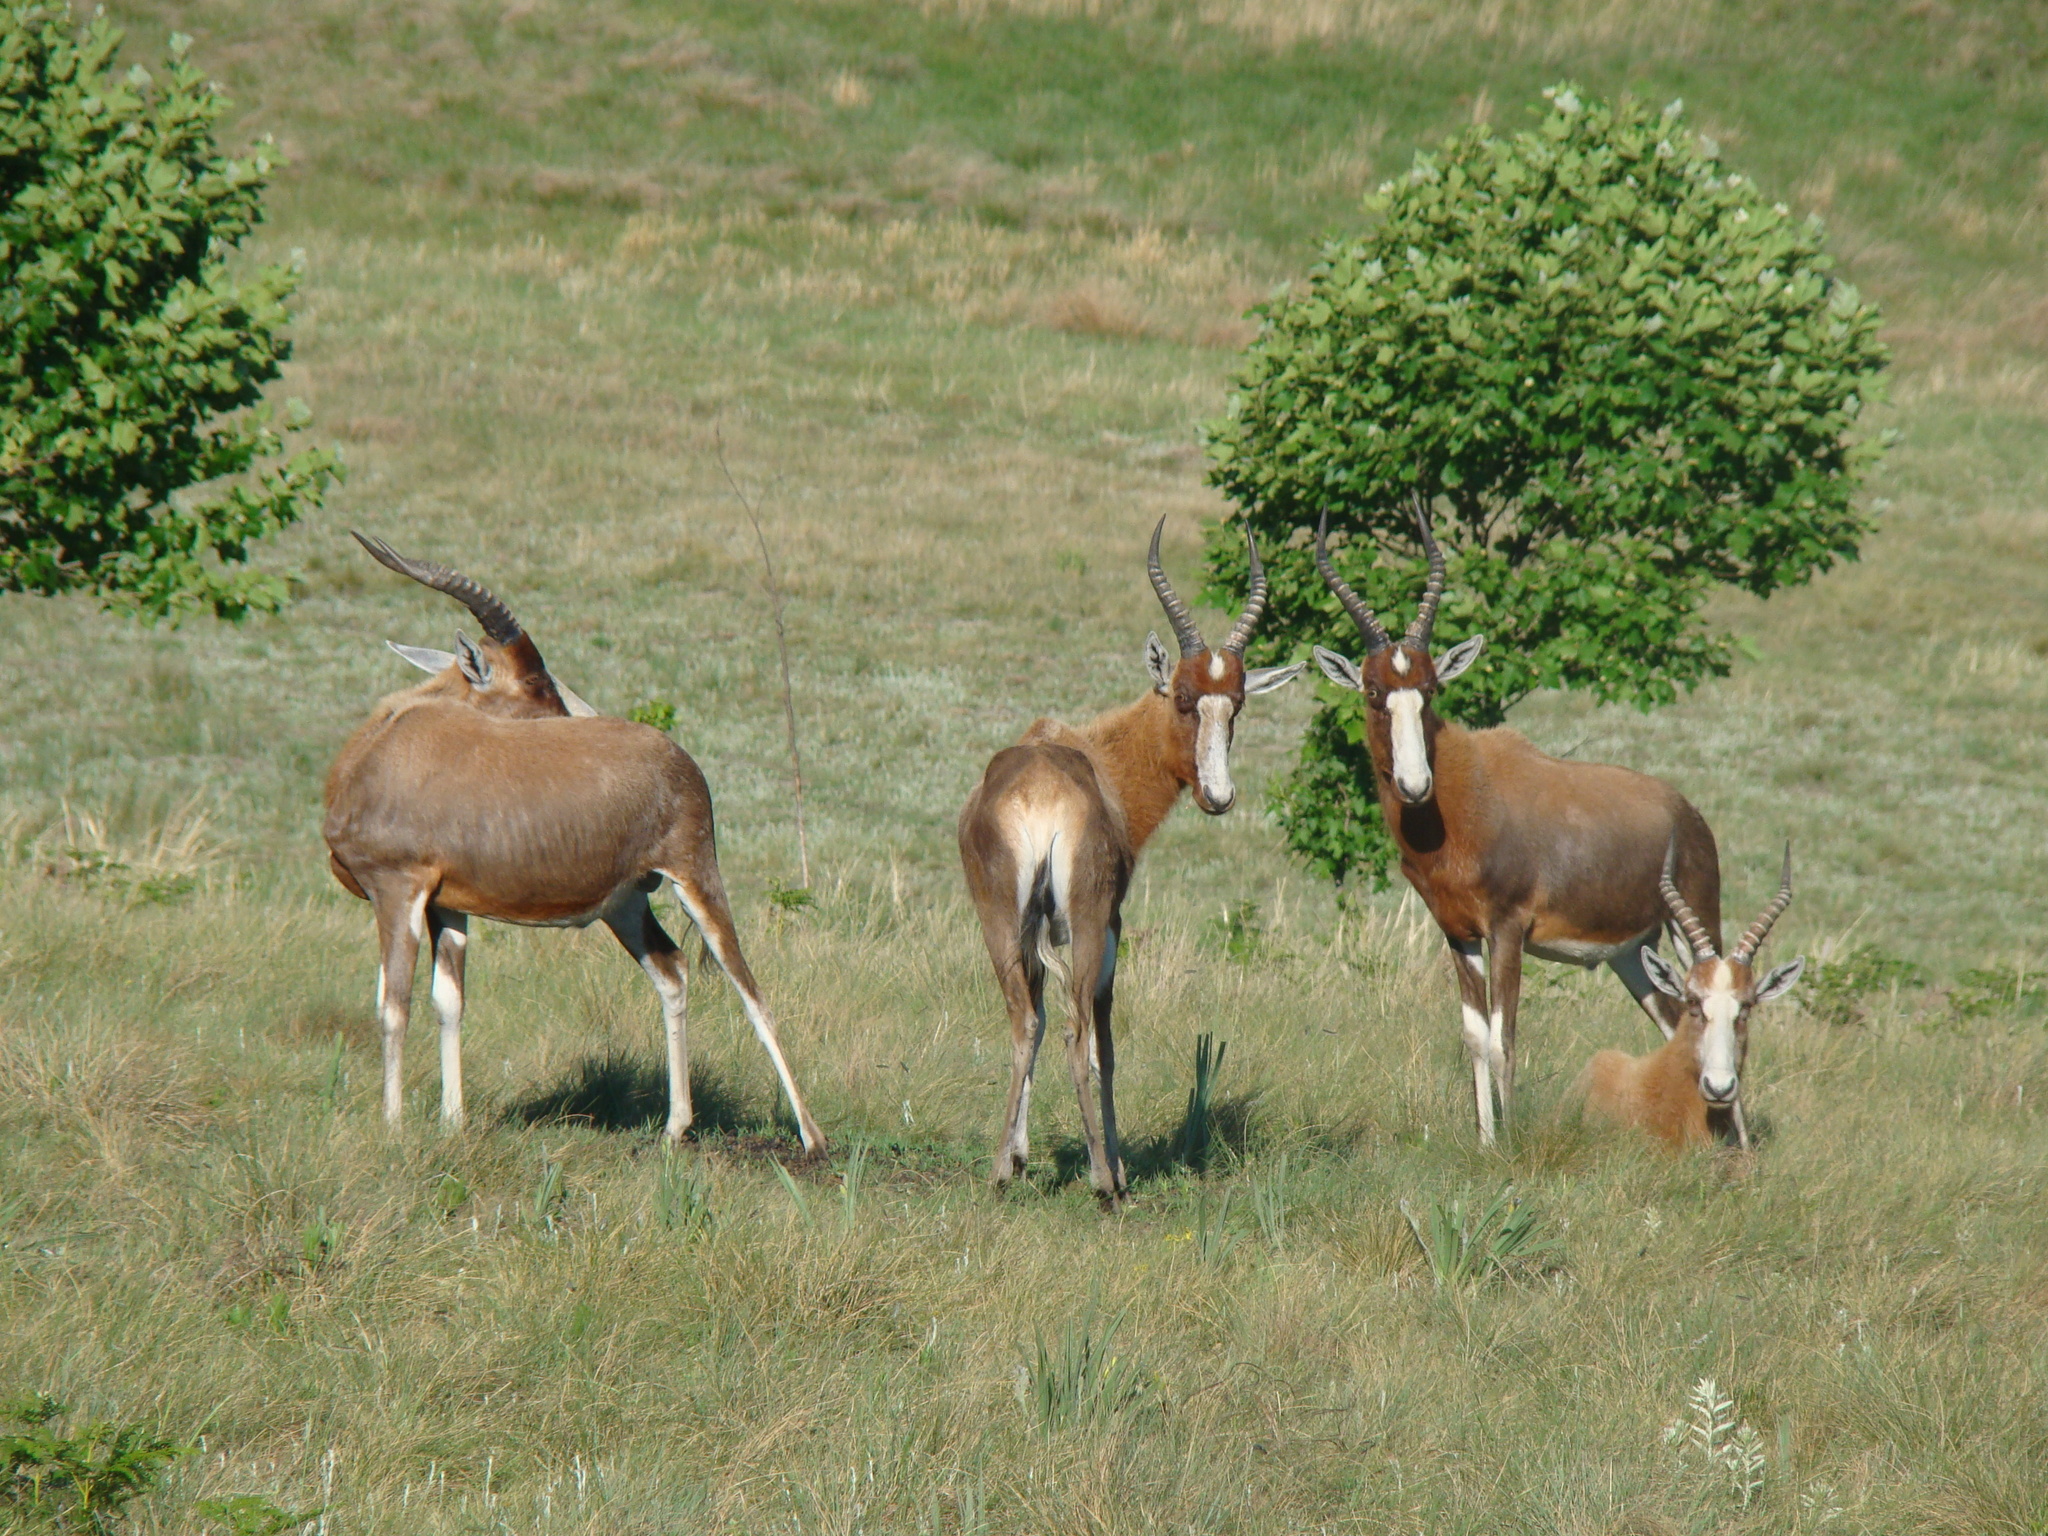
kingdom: Animalia
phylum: Chordata
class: Mammalia
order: Artiodactyla
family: Bovidae
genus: Damaliscus
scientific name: Damaliscus pygargus
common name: Bontebok
